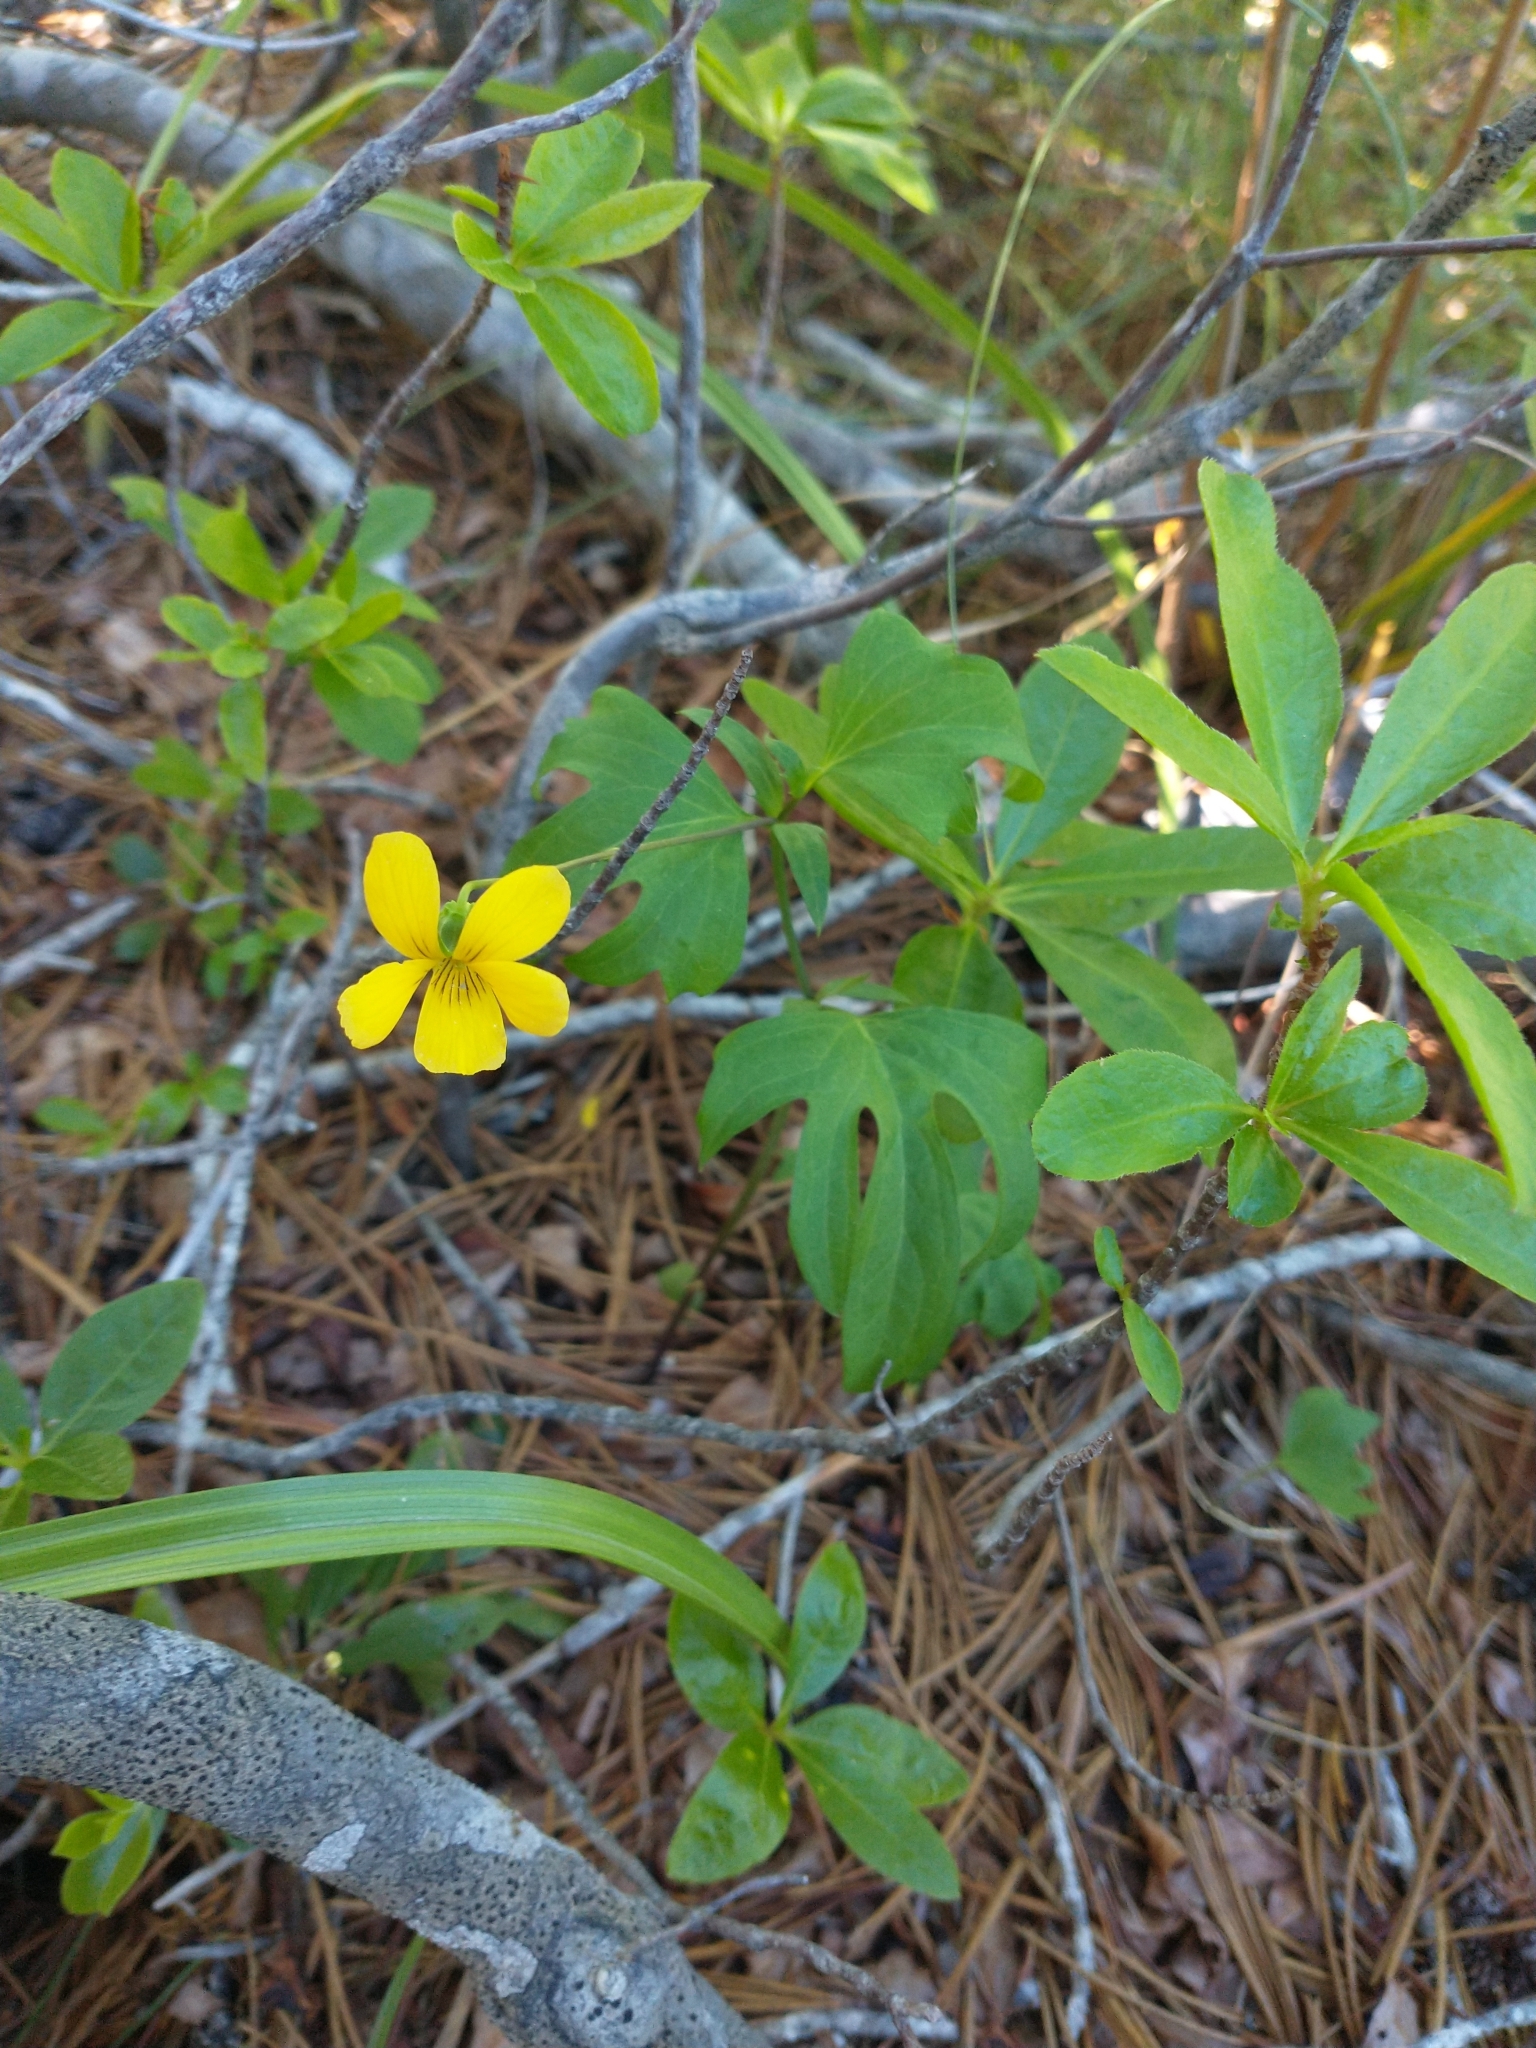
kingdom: Plantae
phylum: Tracheophyta
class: Magnoliopsida
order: Malpighiales
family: Violaceae
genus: Viola
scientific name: Viola lobata
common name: Pine violet
